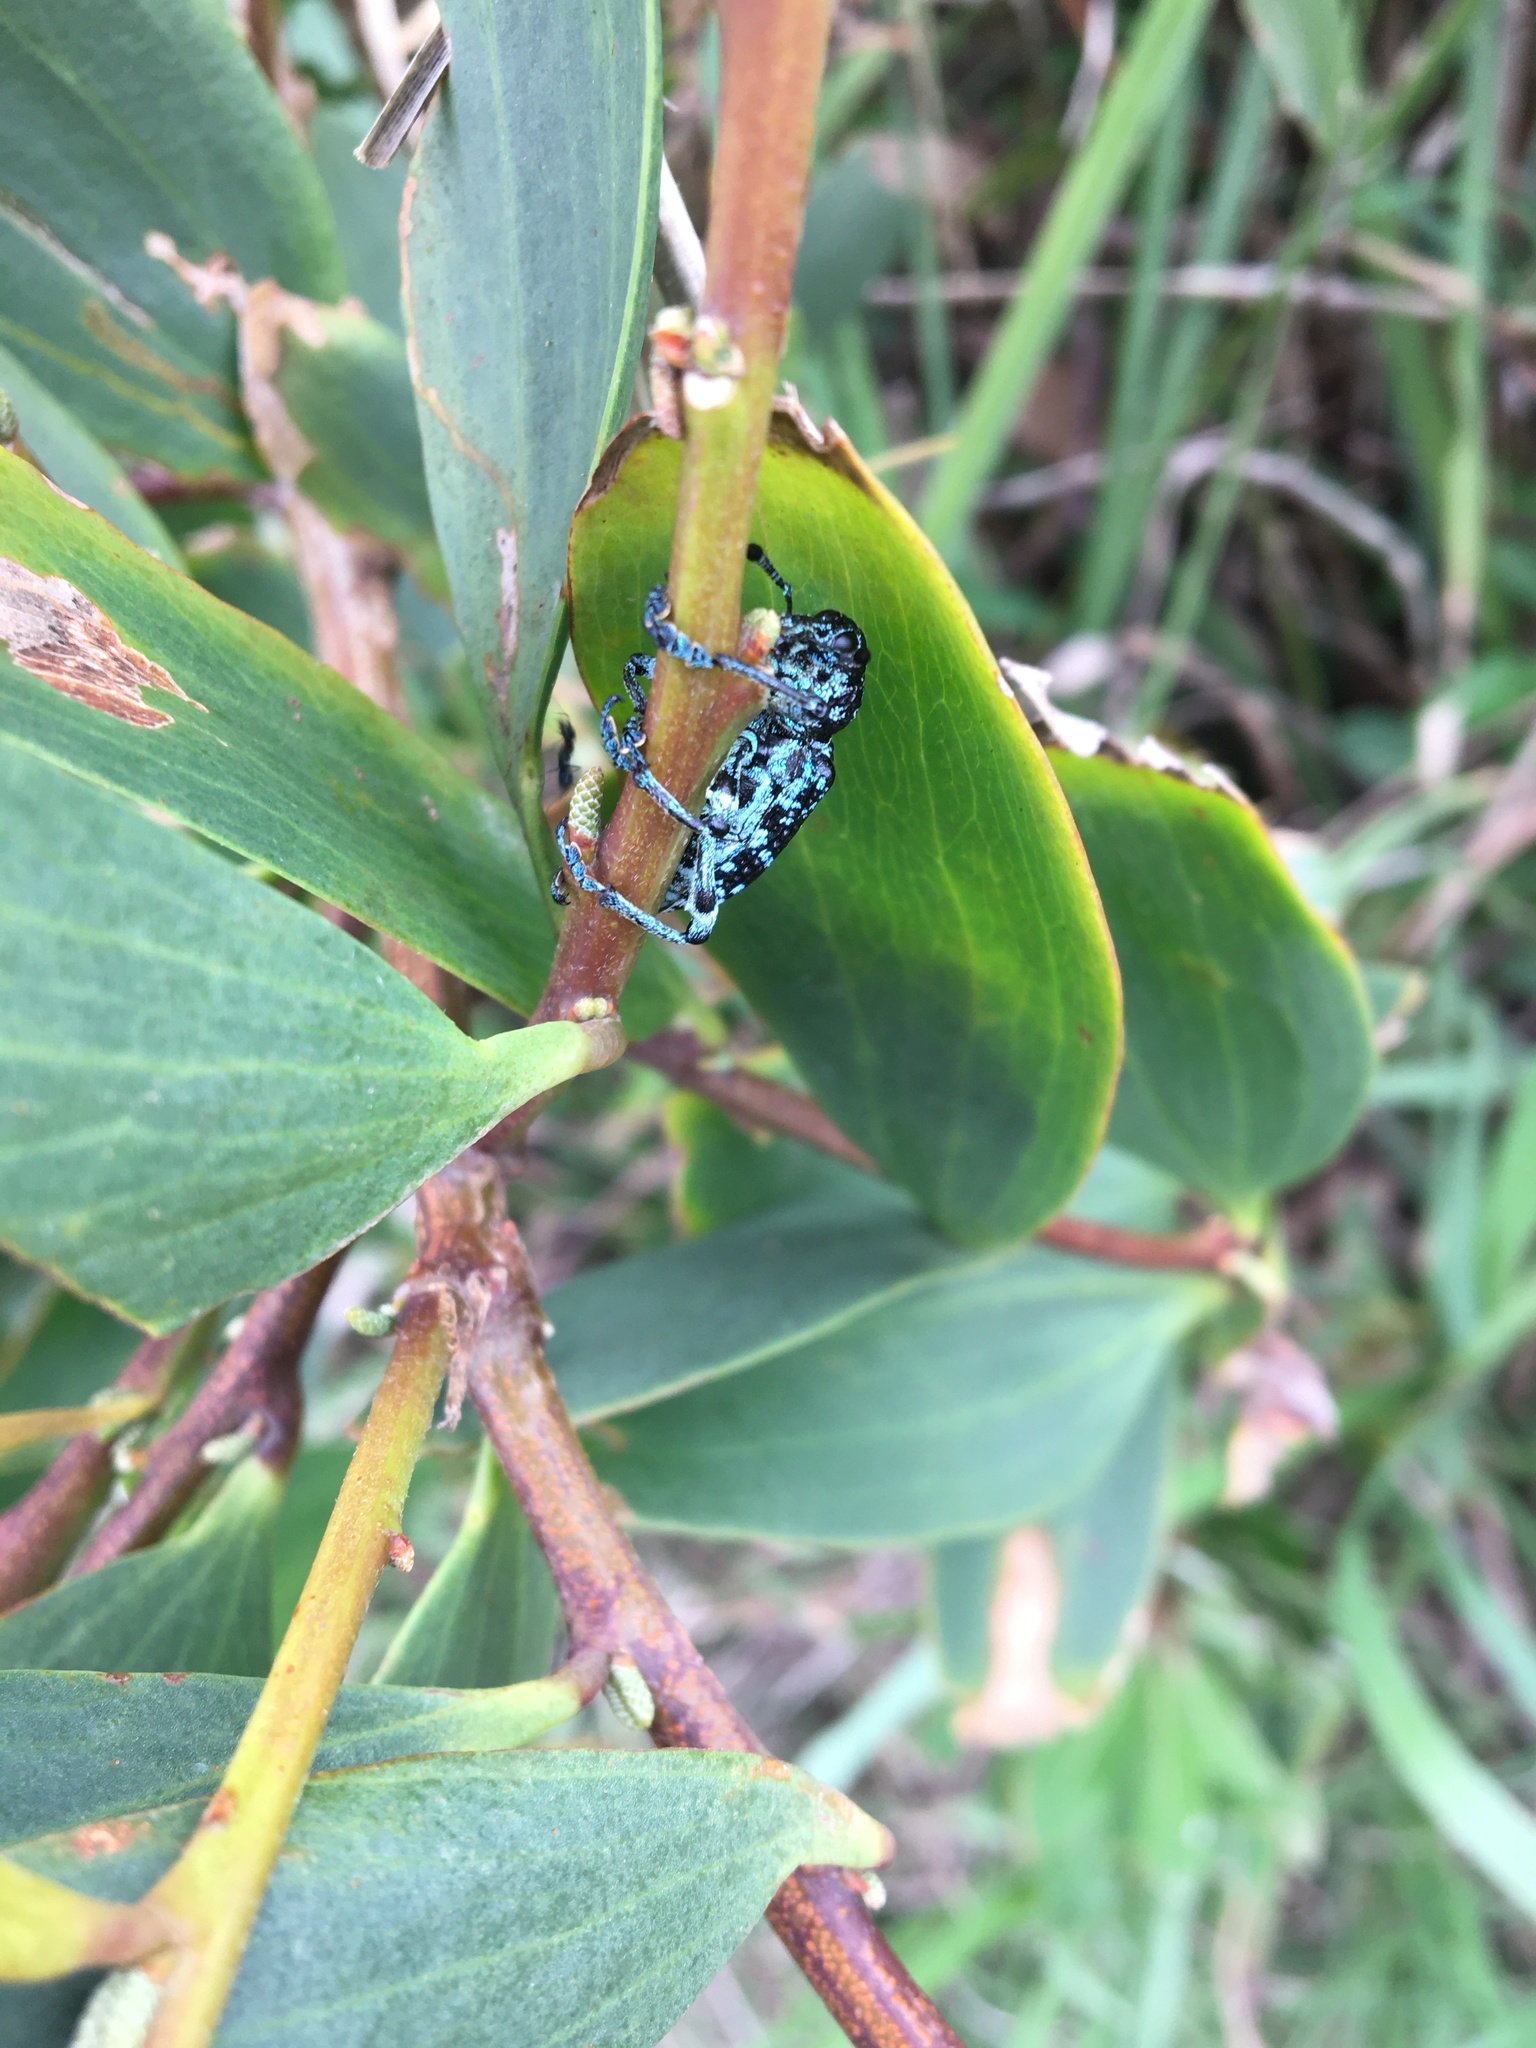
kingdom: Animalia
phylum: Arthropoda
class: Insecta
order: Coleoptera
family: Curculionidae
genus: Chrysolopus
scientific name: Chrysolopus spectabilis
